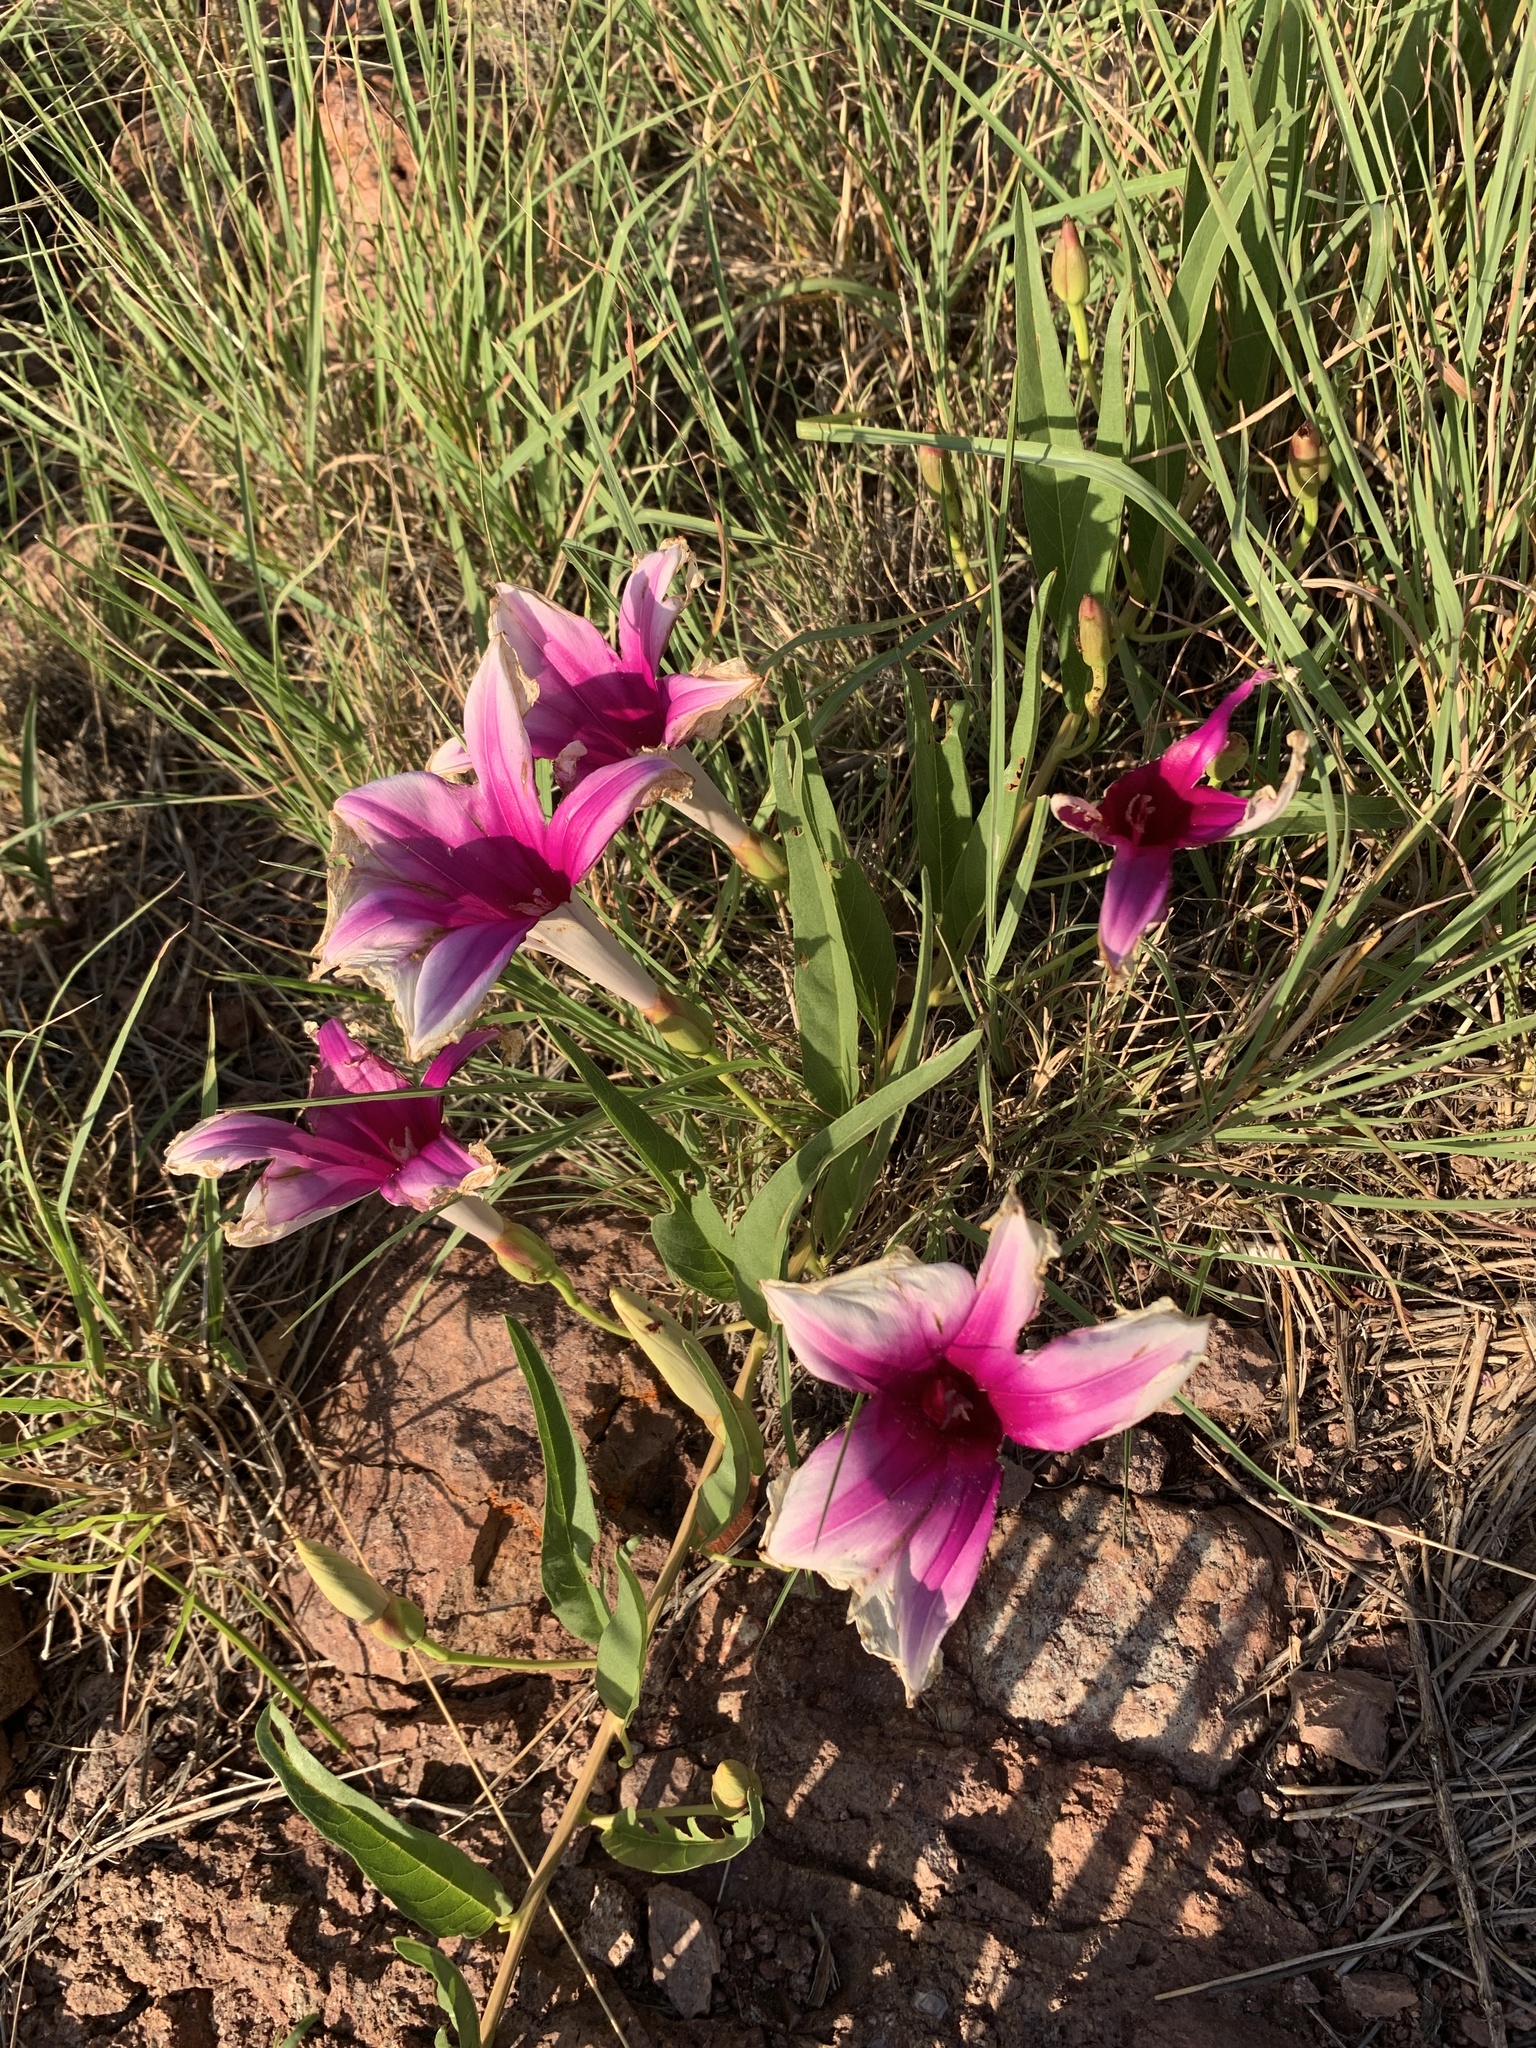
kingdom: Plantae
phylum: Tracheophyta
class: Magnoliopsida
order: Solanales
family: Convolvulaceae
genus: Ipomoea
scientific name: Ipomoea longifolia
